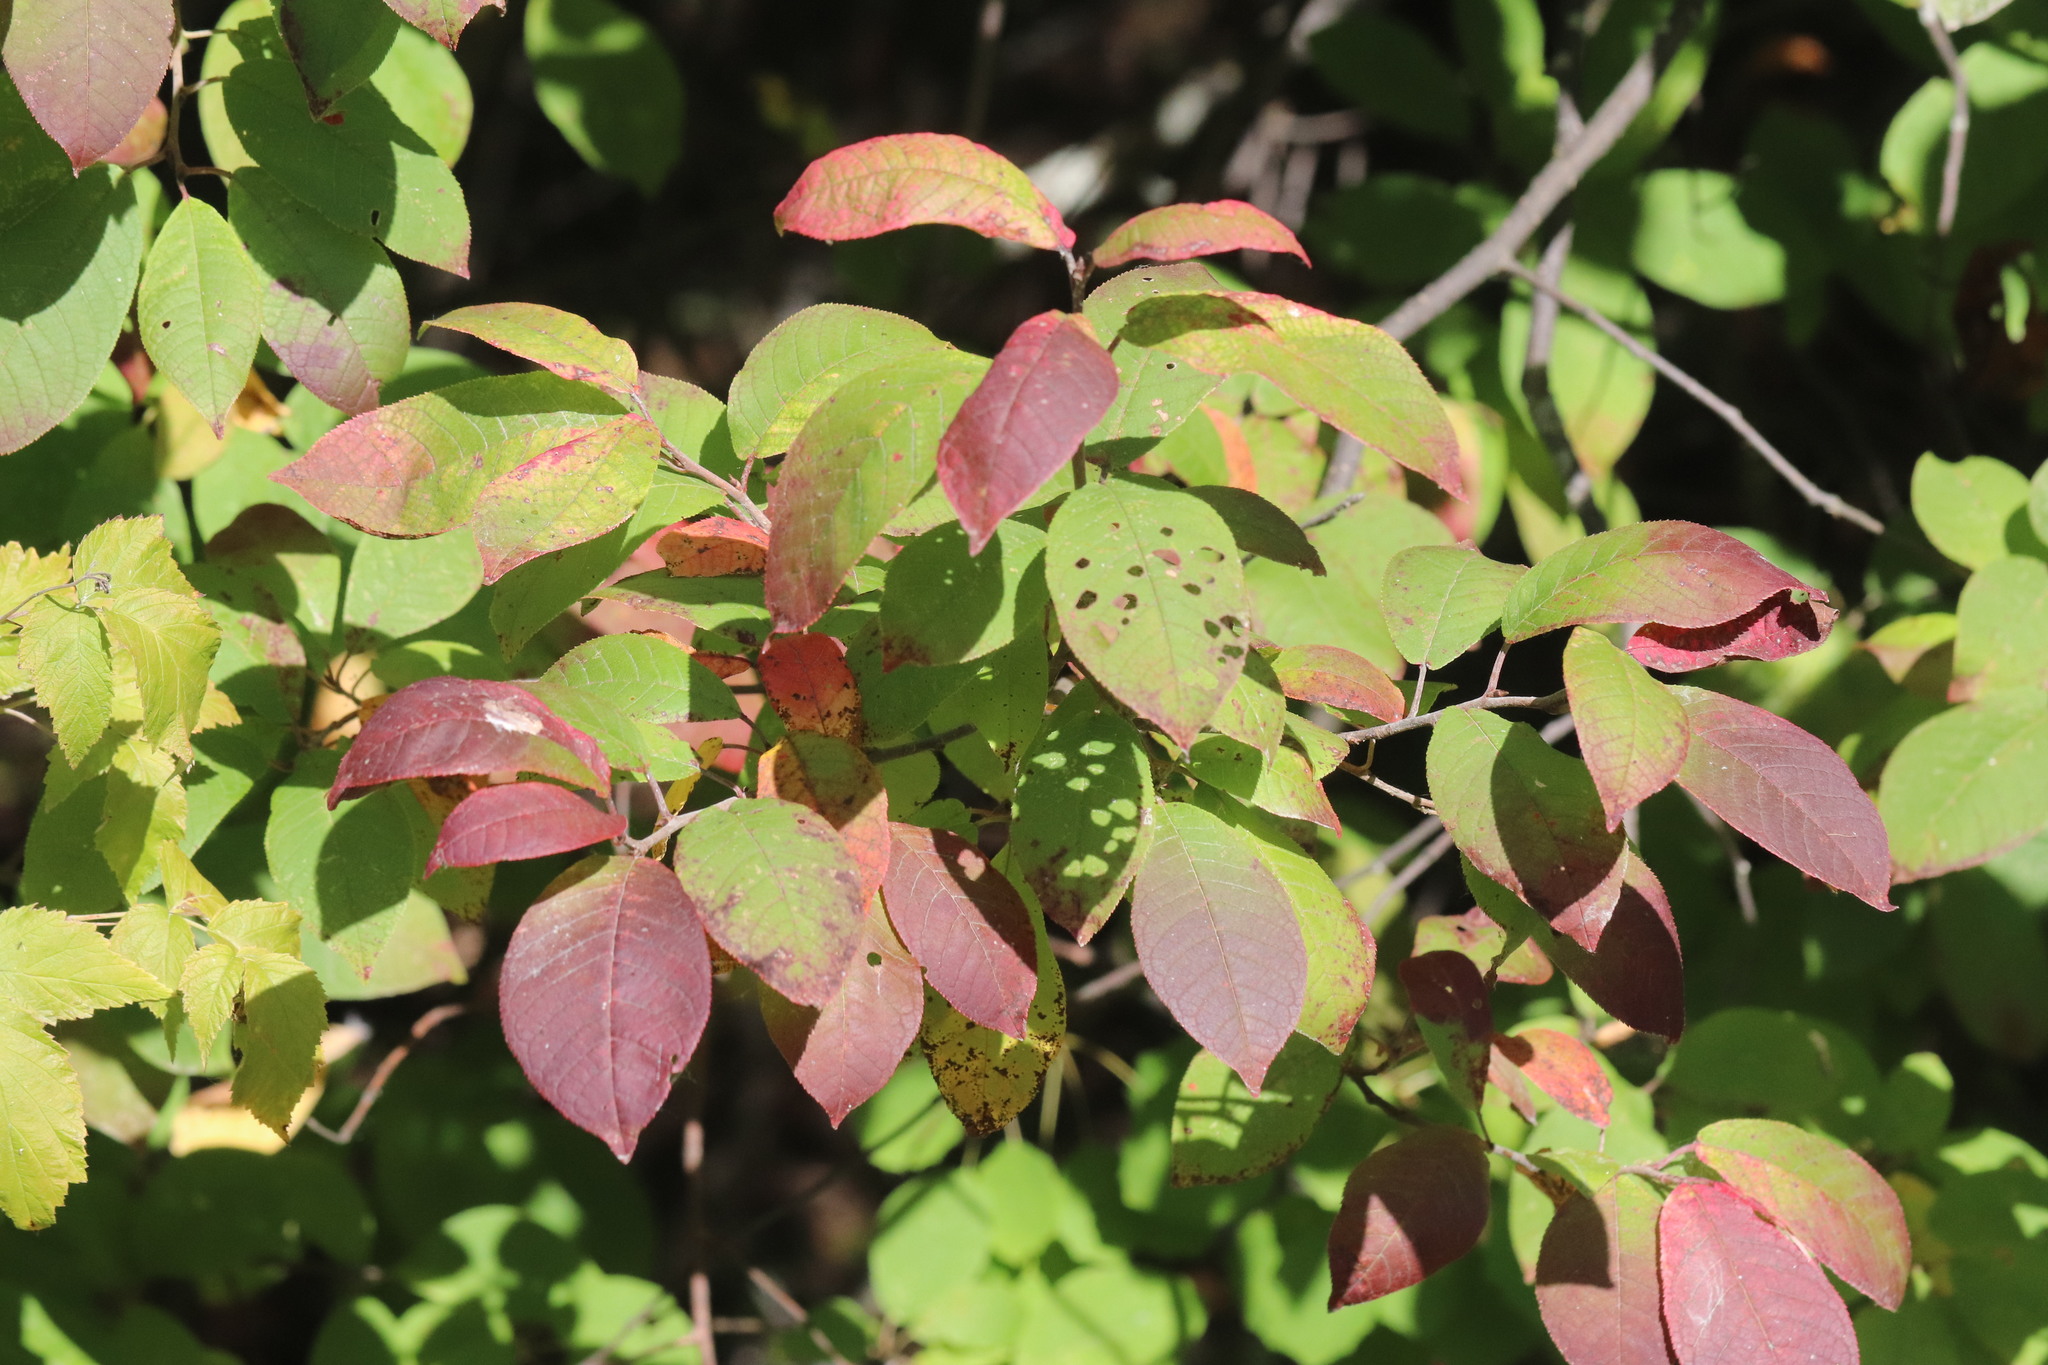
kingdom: Plantae
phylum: Tracheophyta
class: Magnoliopsida
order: Rosales
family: Rosaceae
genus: Prunus
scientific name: Prunus padus
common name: Bird cherry
